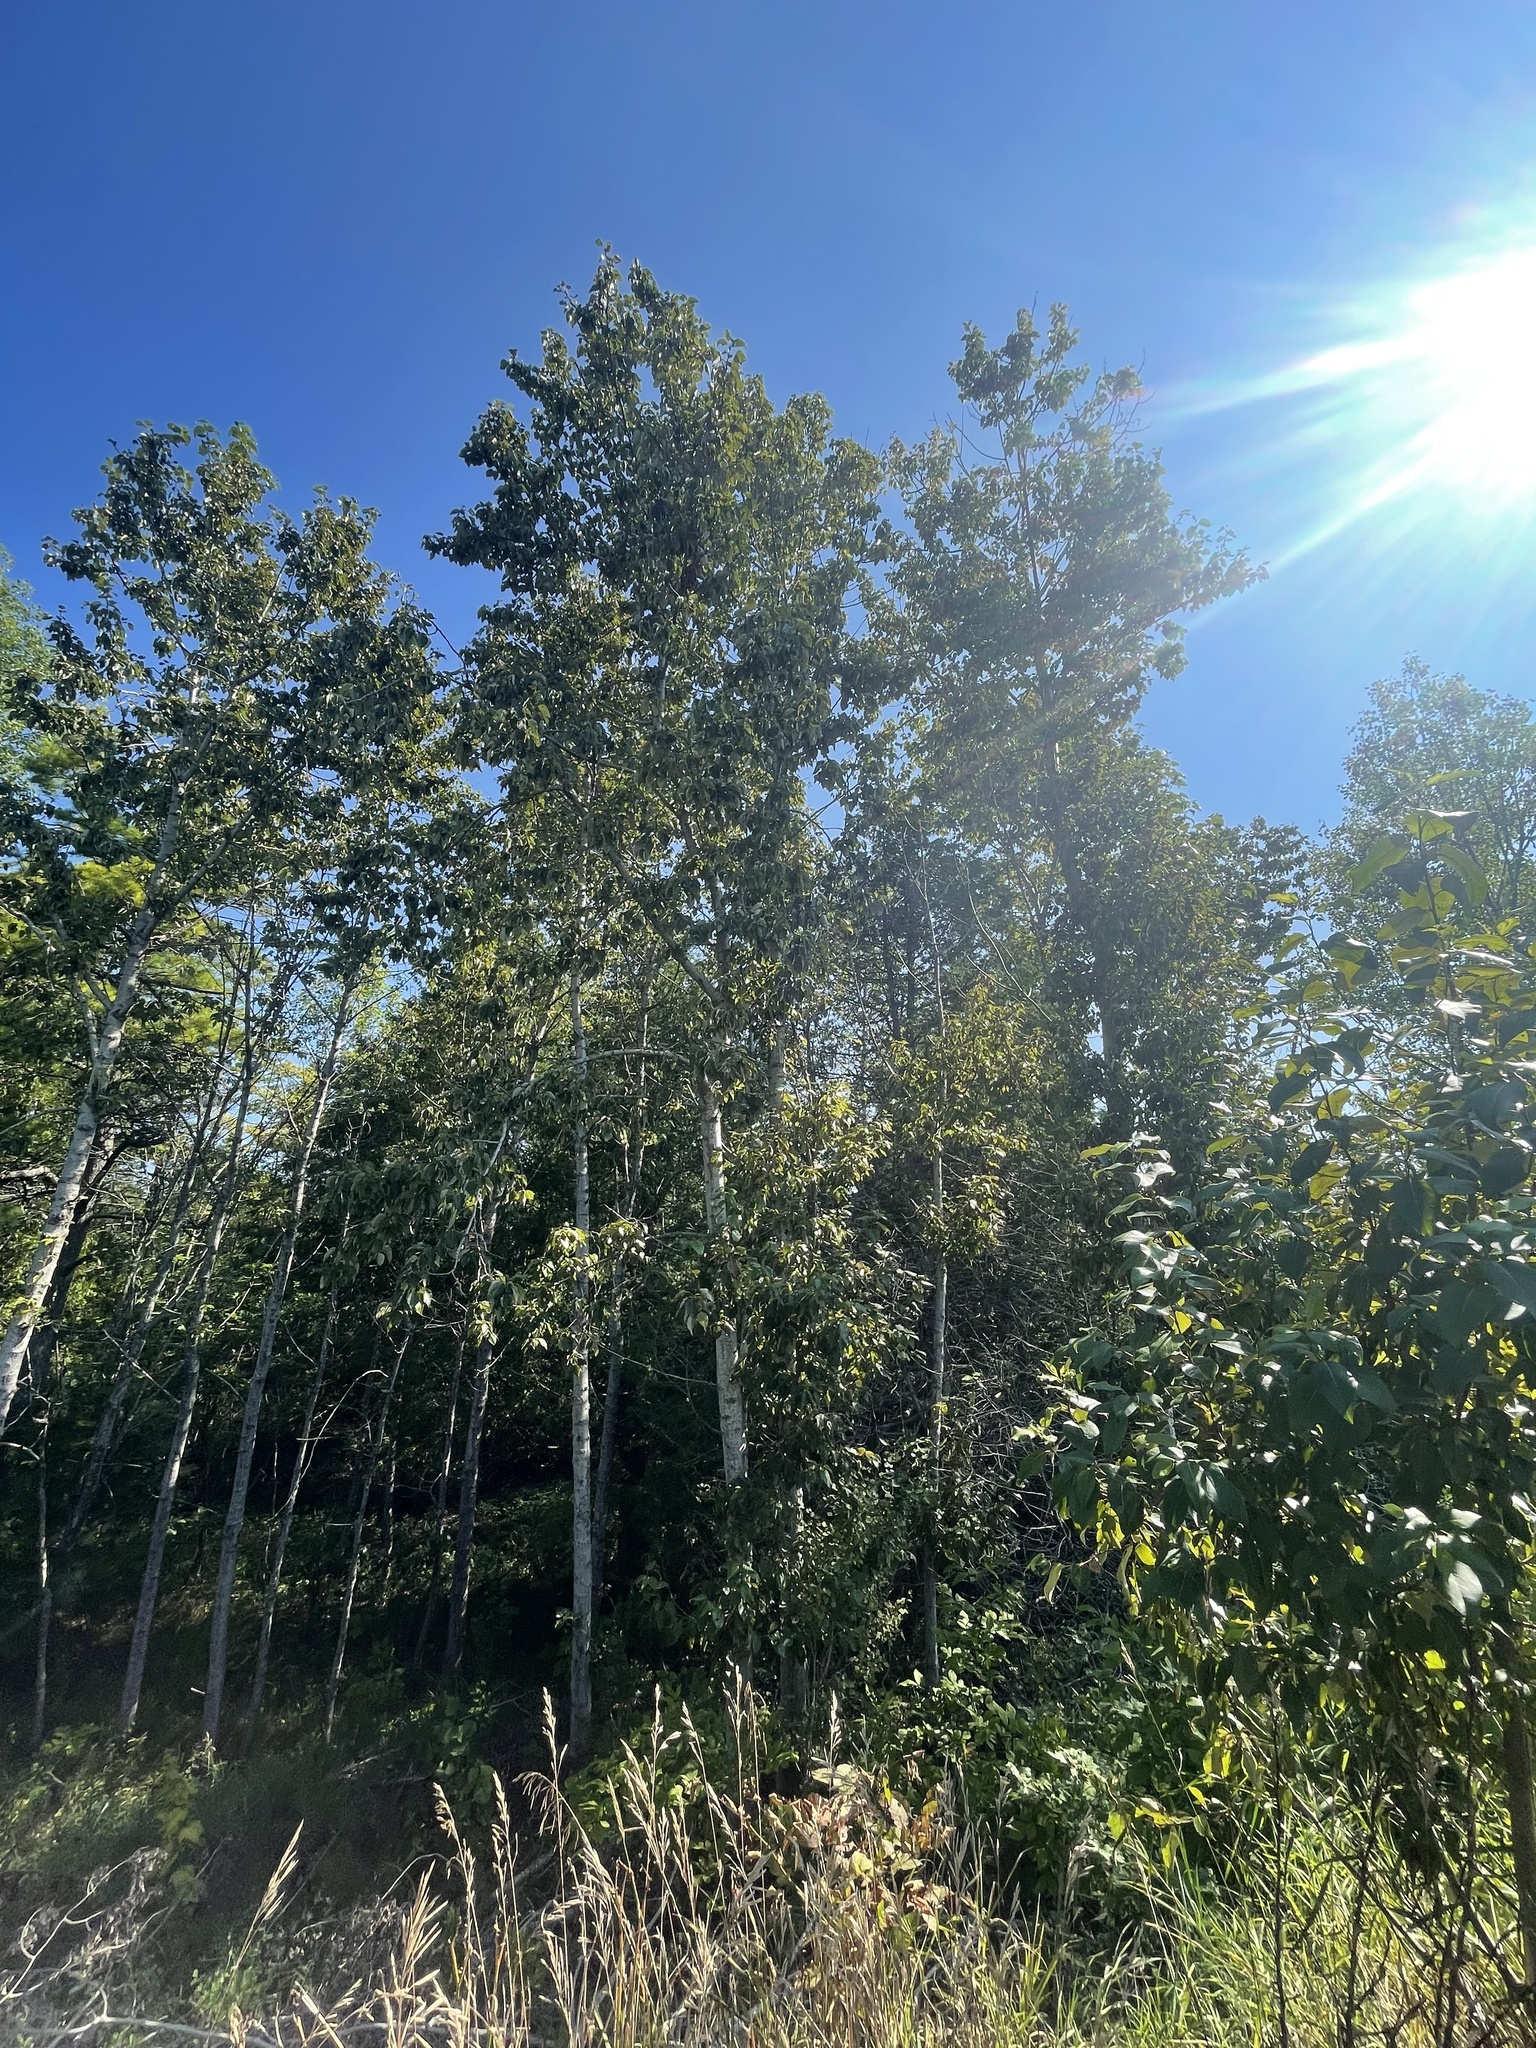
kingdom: Plantae
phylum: Tracheophyta
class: Magnoliopsida
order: Malpighiales
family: Salicaceae
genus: Populus
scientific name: Populus balsamifera
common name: Balsam poplar
